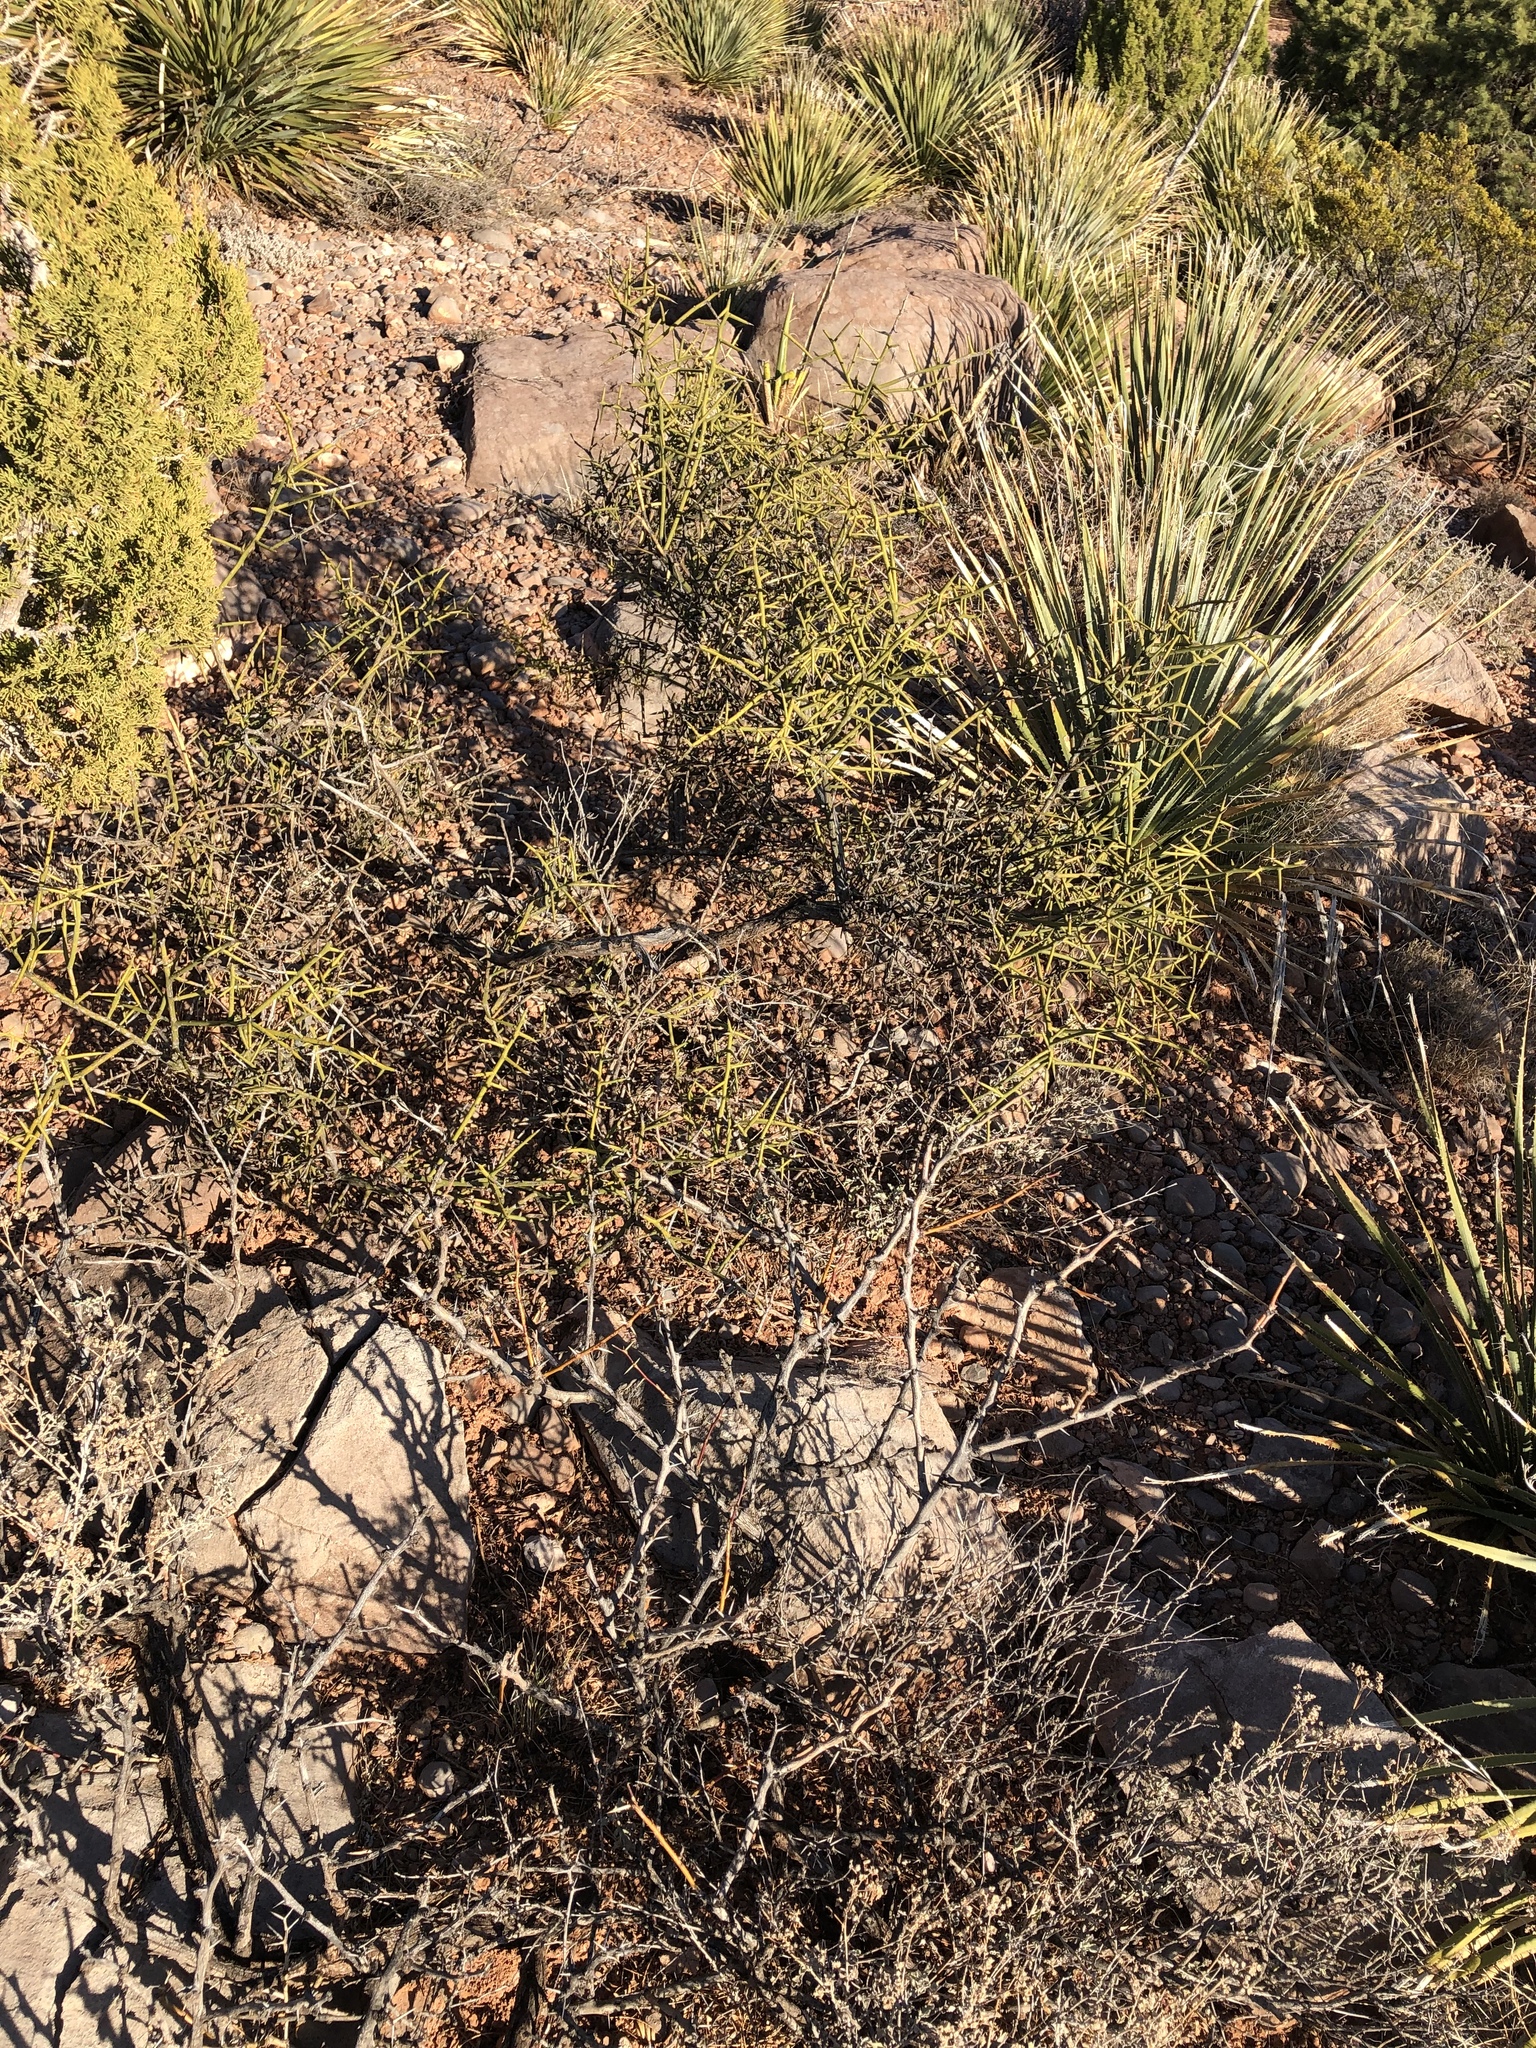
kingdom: Plantae
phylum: Tracheophyta
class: Magnoliopsida
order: Brassicales
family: Koeberliniaceae
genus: Koeberlinia
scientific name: Koeberlinia spinosa
